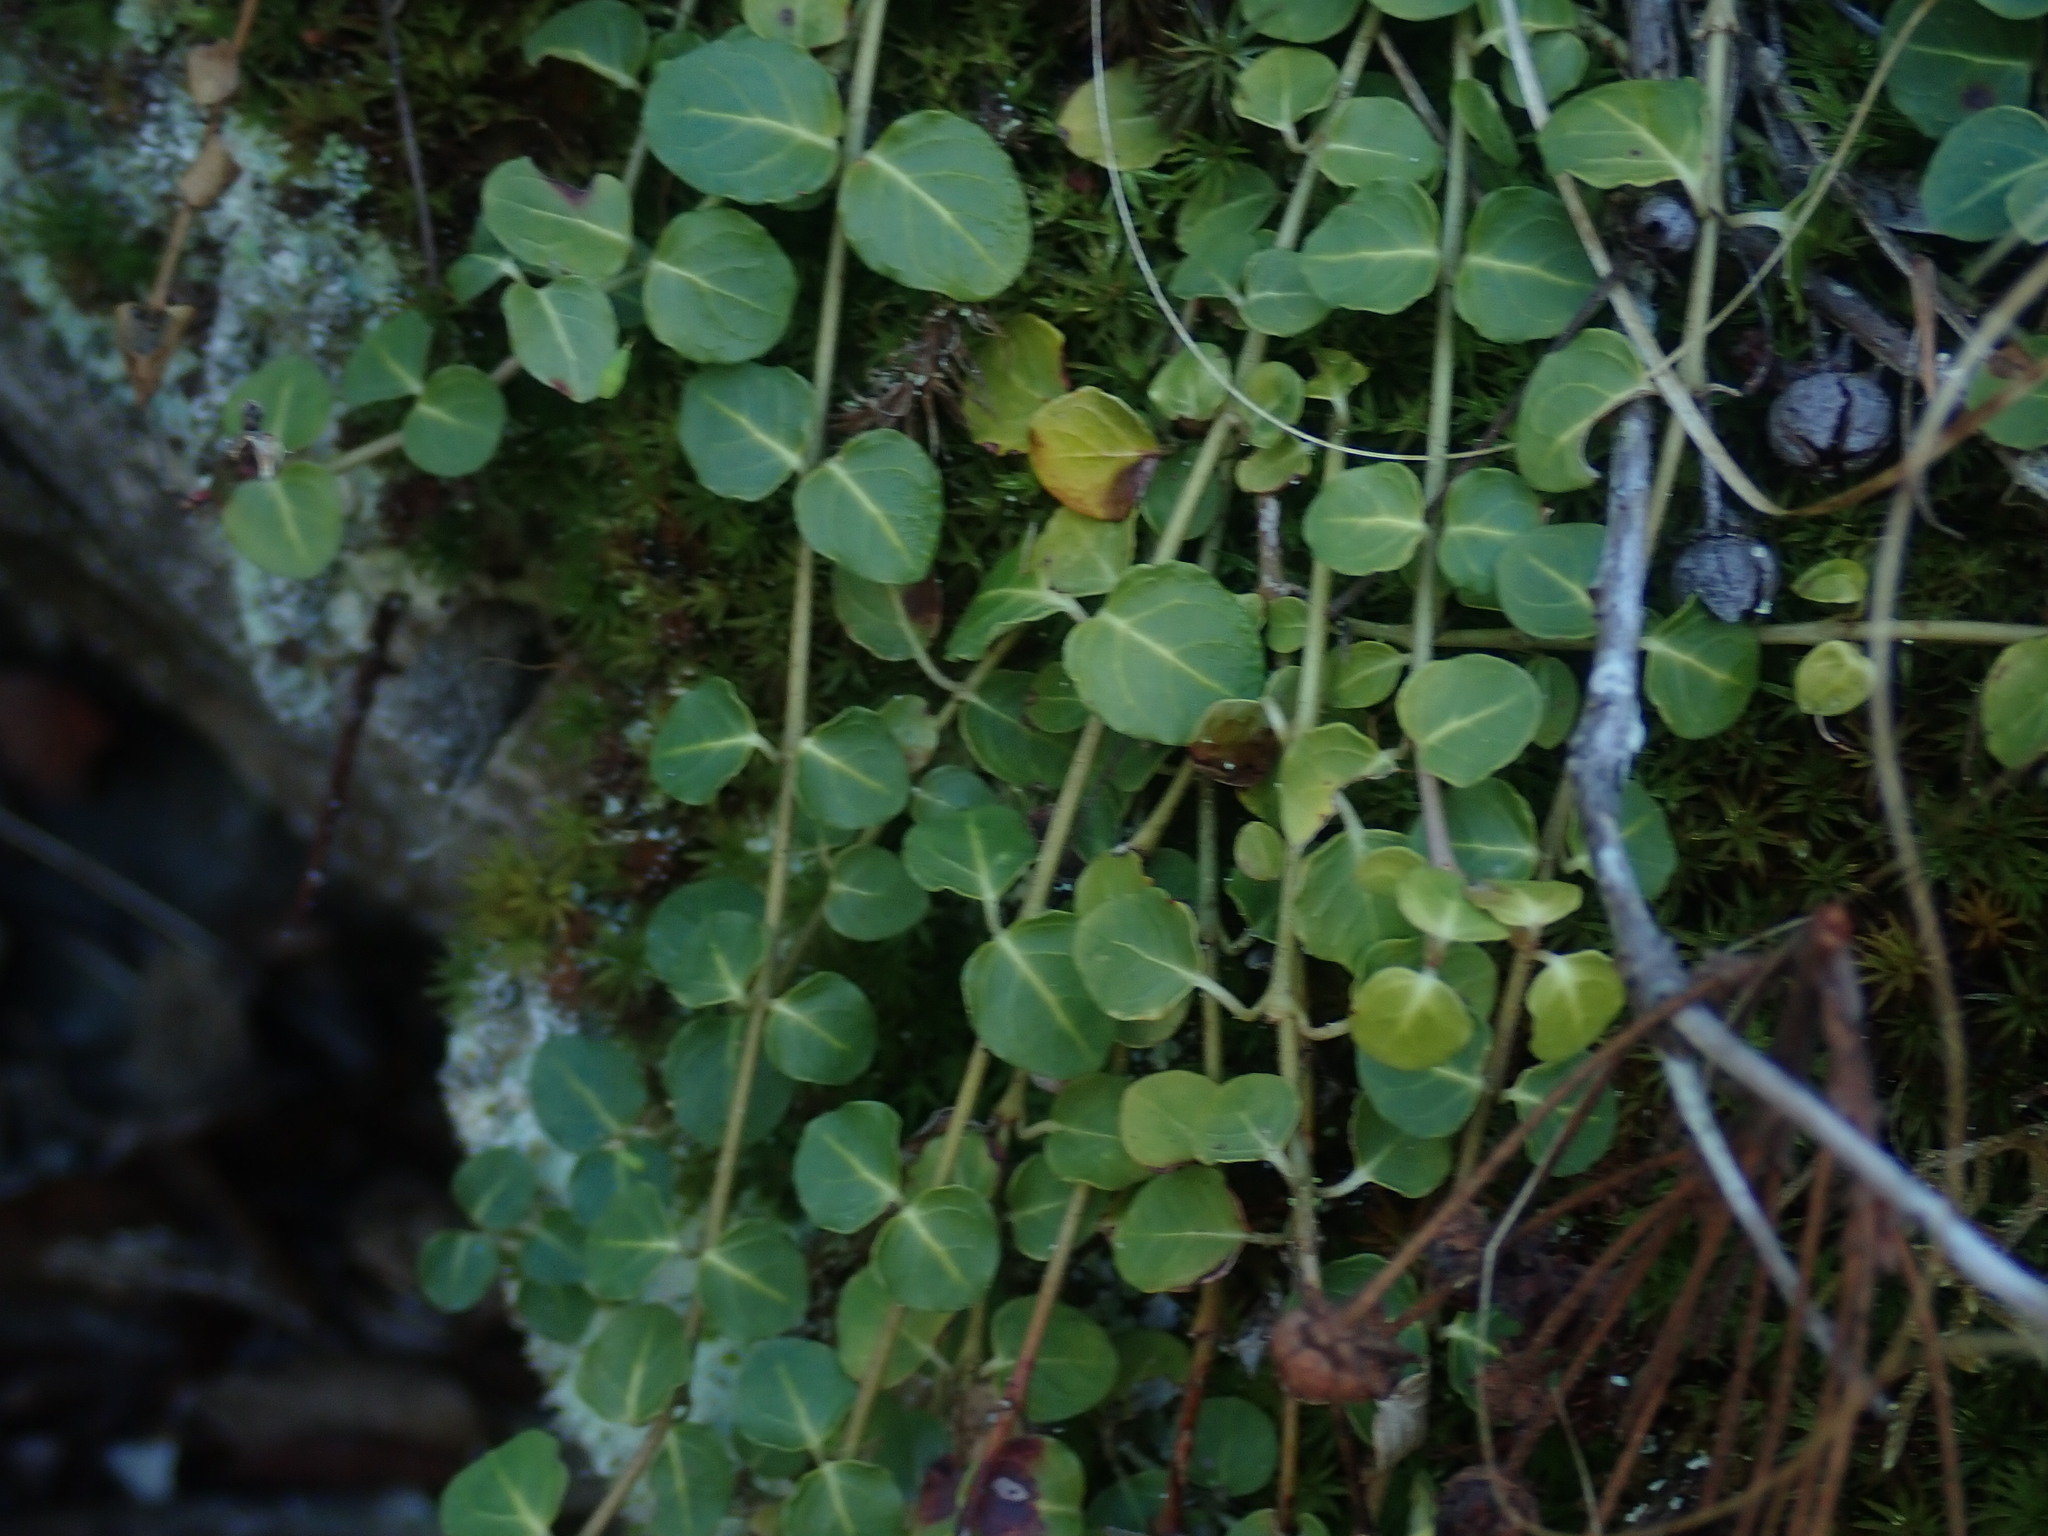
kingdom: Plantae
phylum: Tracheophyta
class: Magnoliopsida
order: Gentianales
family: Rubiaceae
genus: Mitchella
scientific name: Mitchella repens
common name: Partridge-berry
